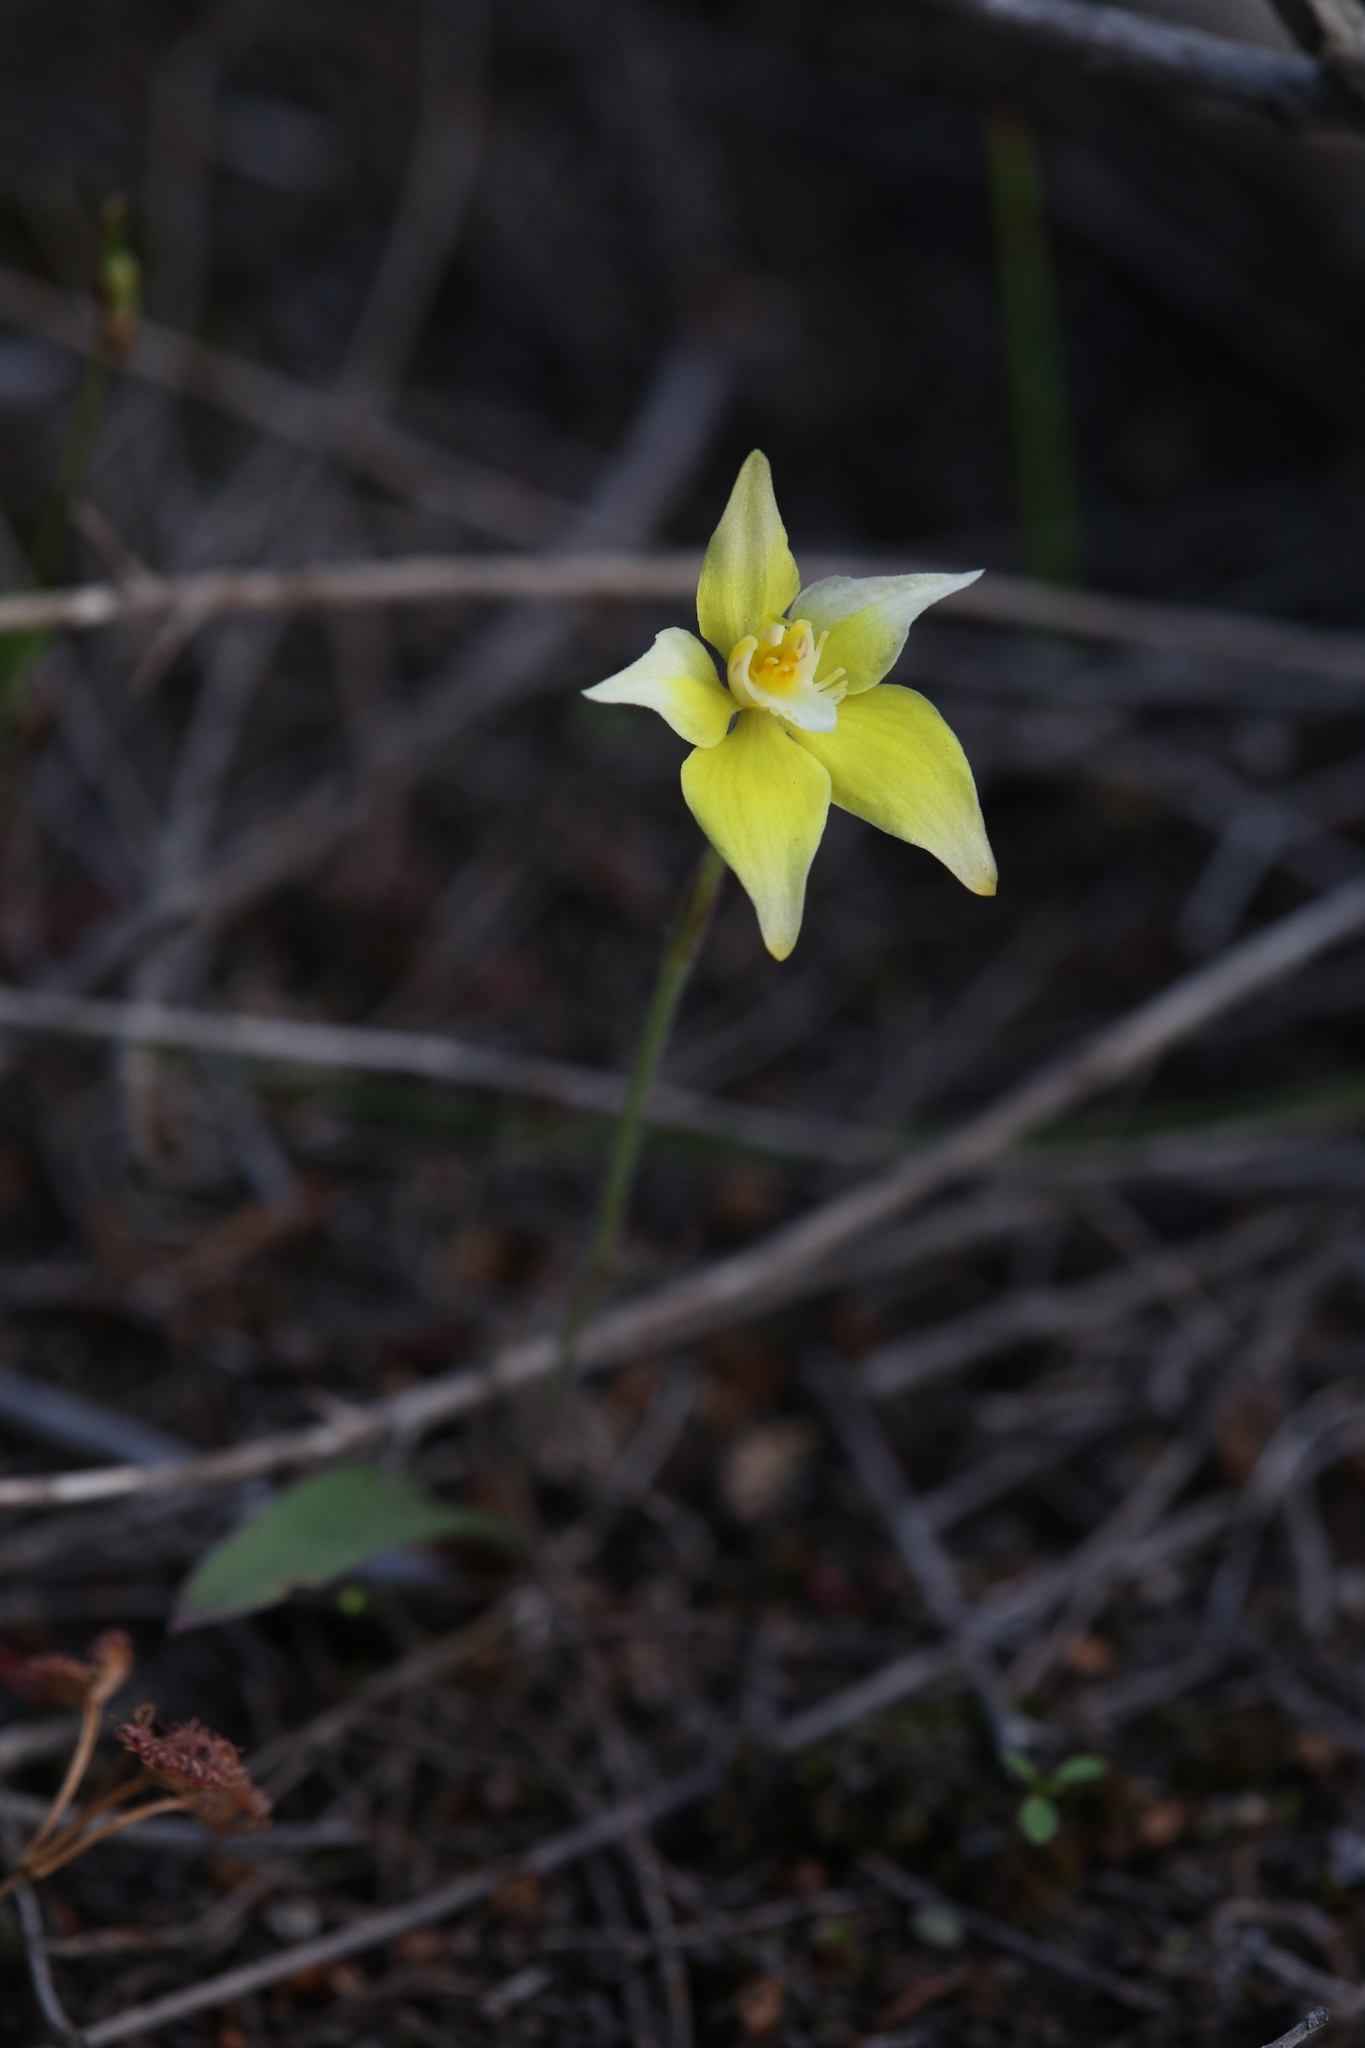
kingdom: Plantae
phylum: Tracheophyta
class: Liliopsida
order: Asparagales
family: Orchidaceae
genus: Caladenia
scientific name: Caladenia flava
